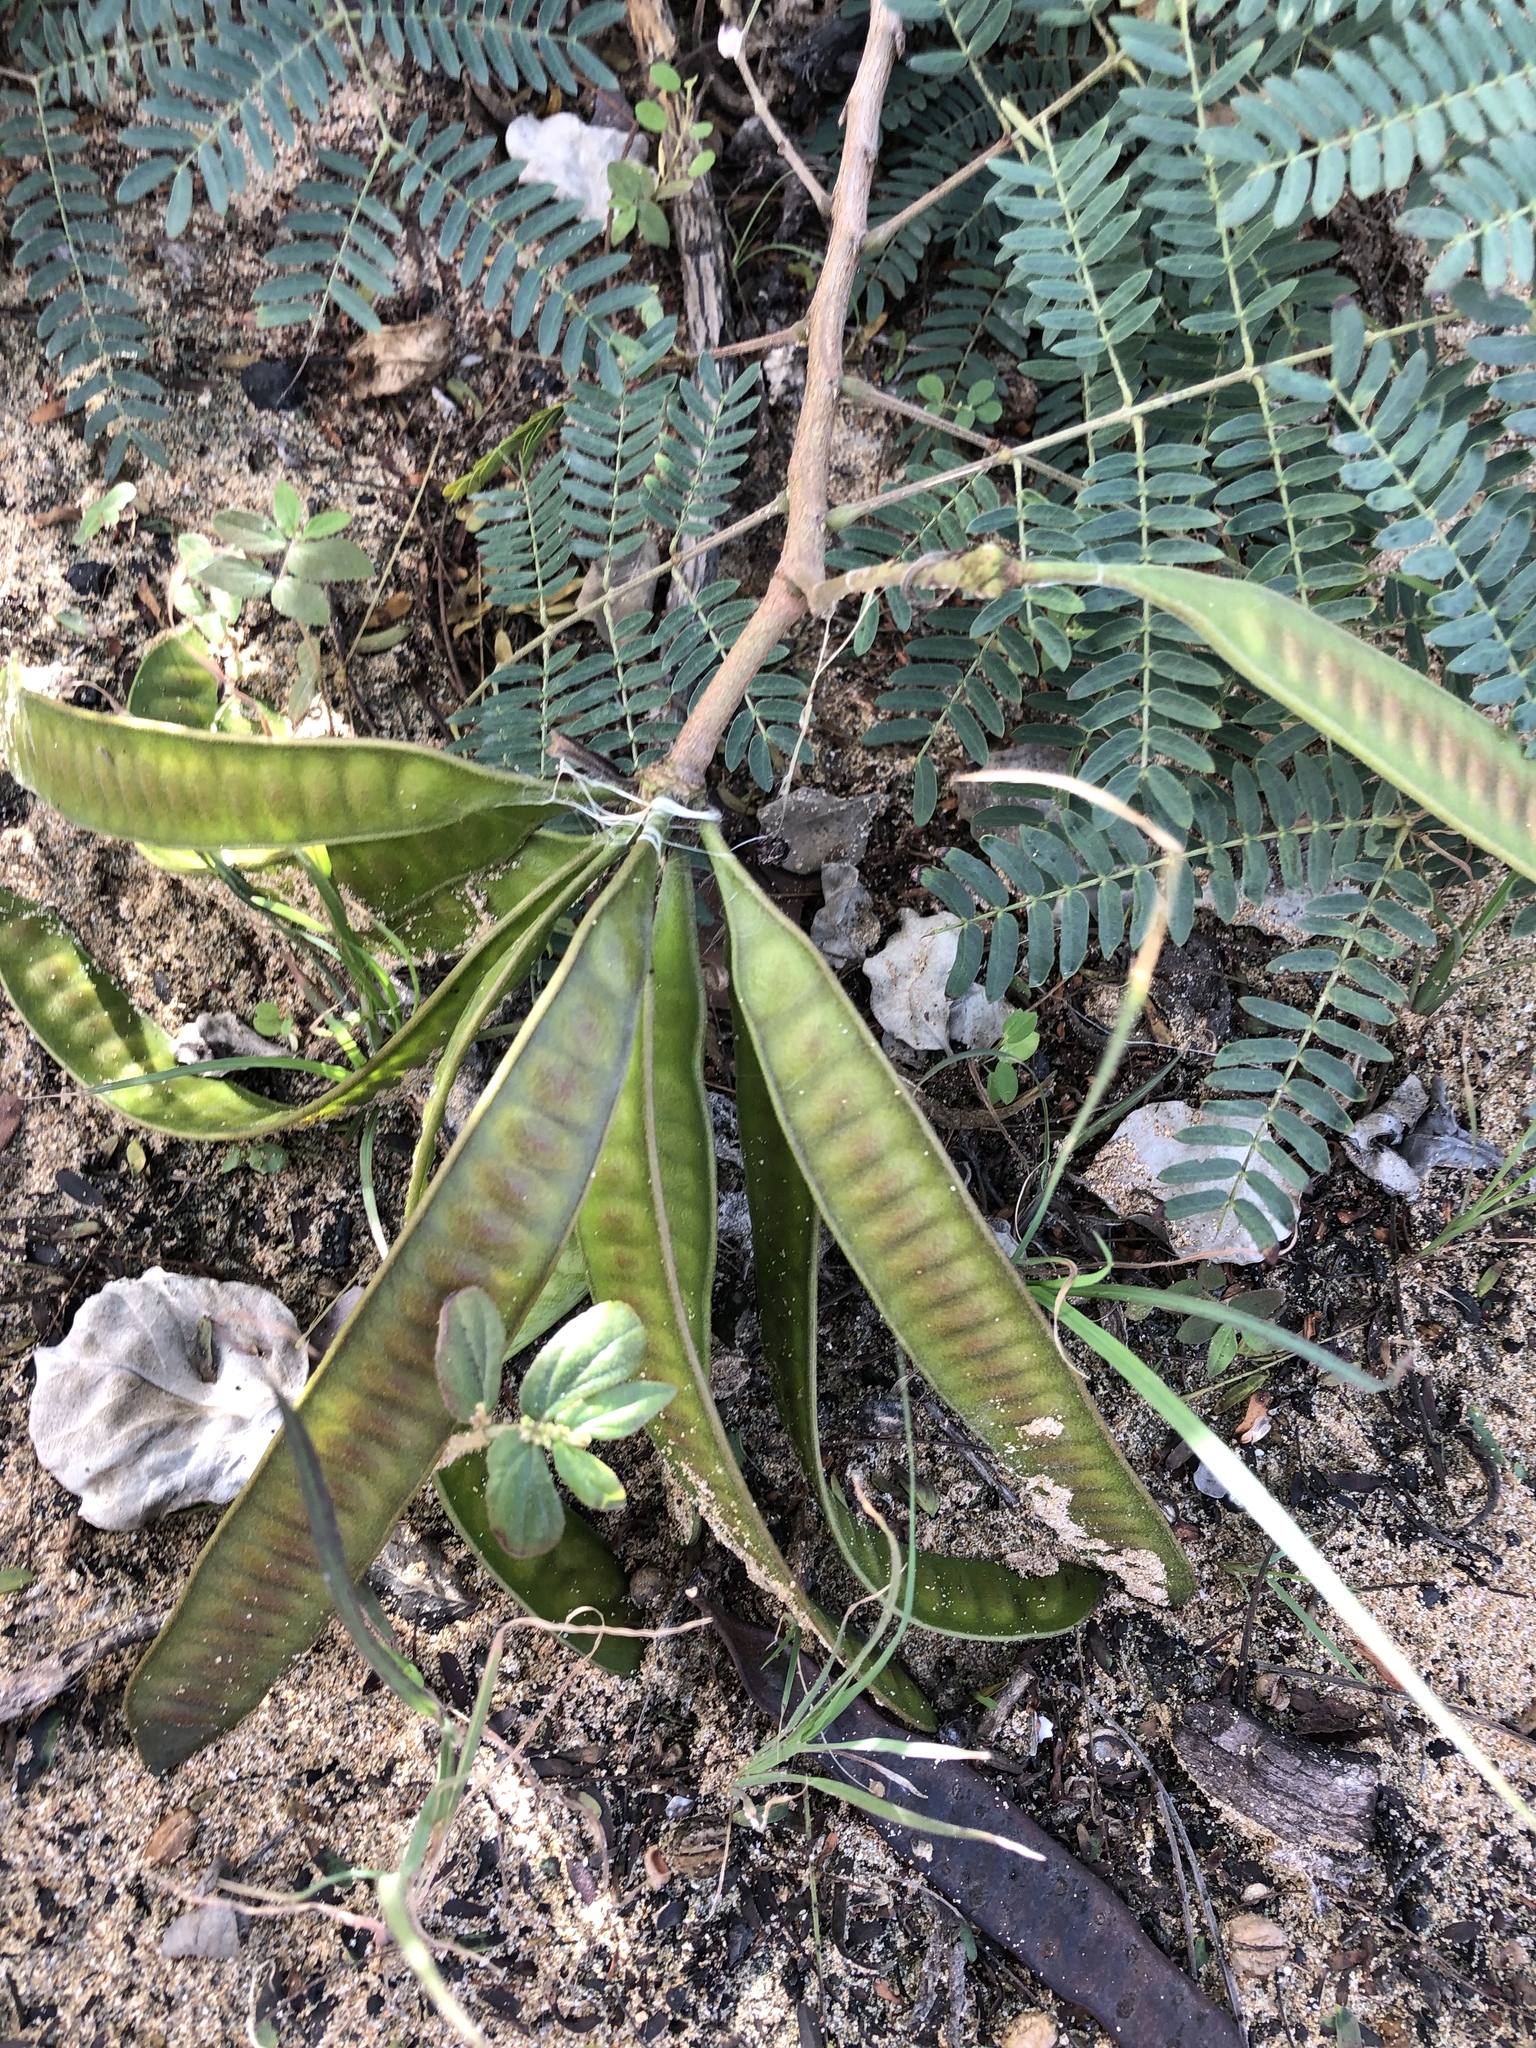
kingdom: Plantae
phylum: Tracheophyta
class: Magnoliopsida
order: Fabales
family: Fabaceae
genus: Leucaena
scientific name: Leucaena leucocephala
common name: White leadtree
